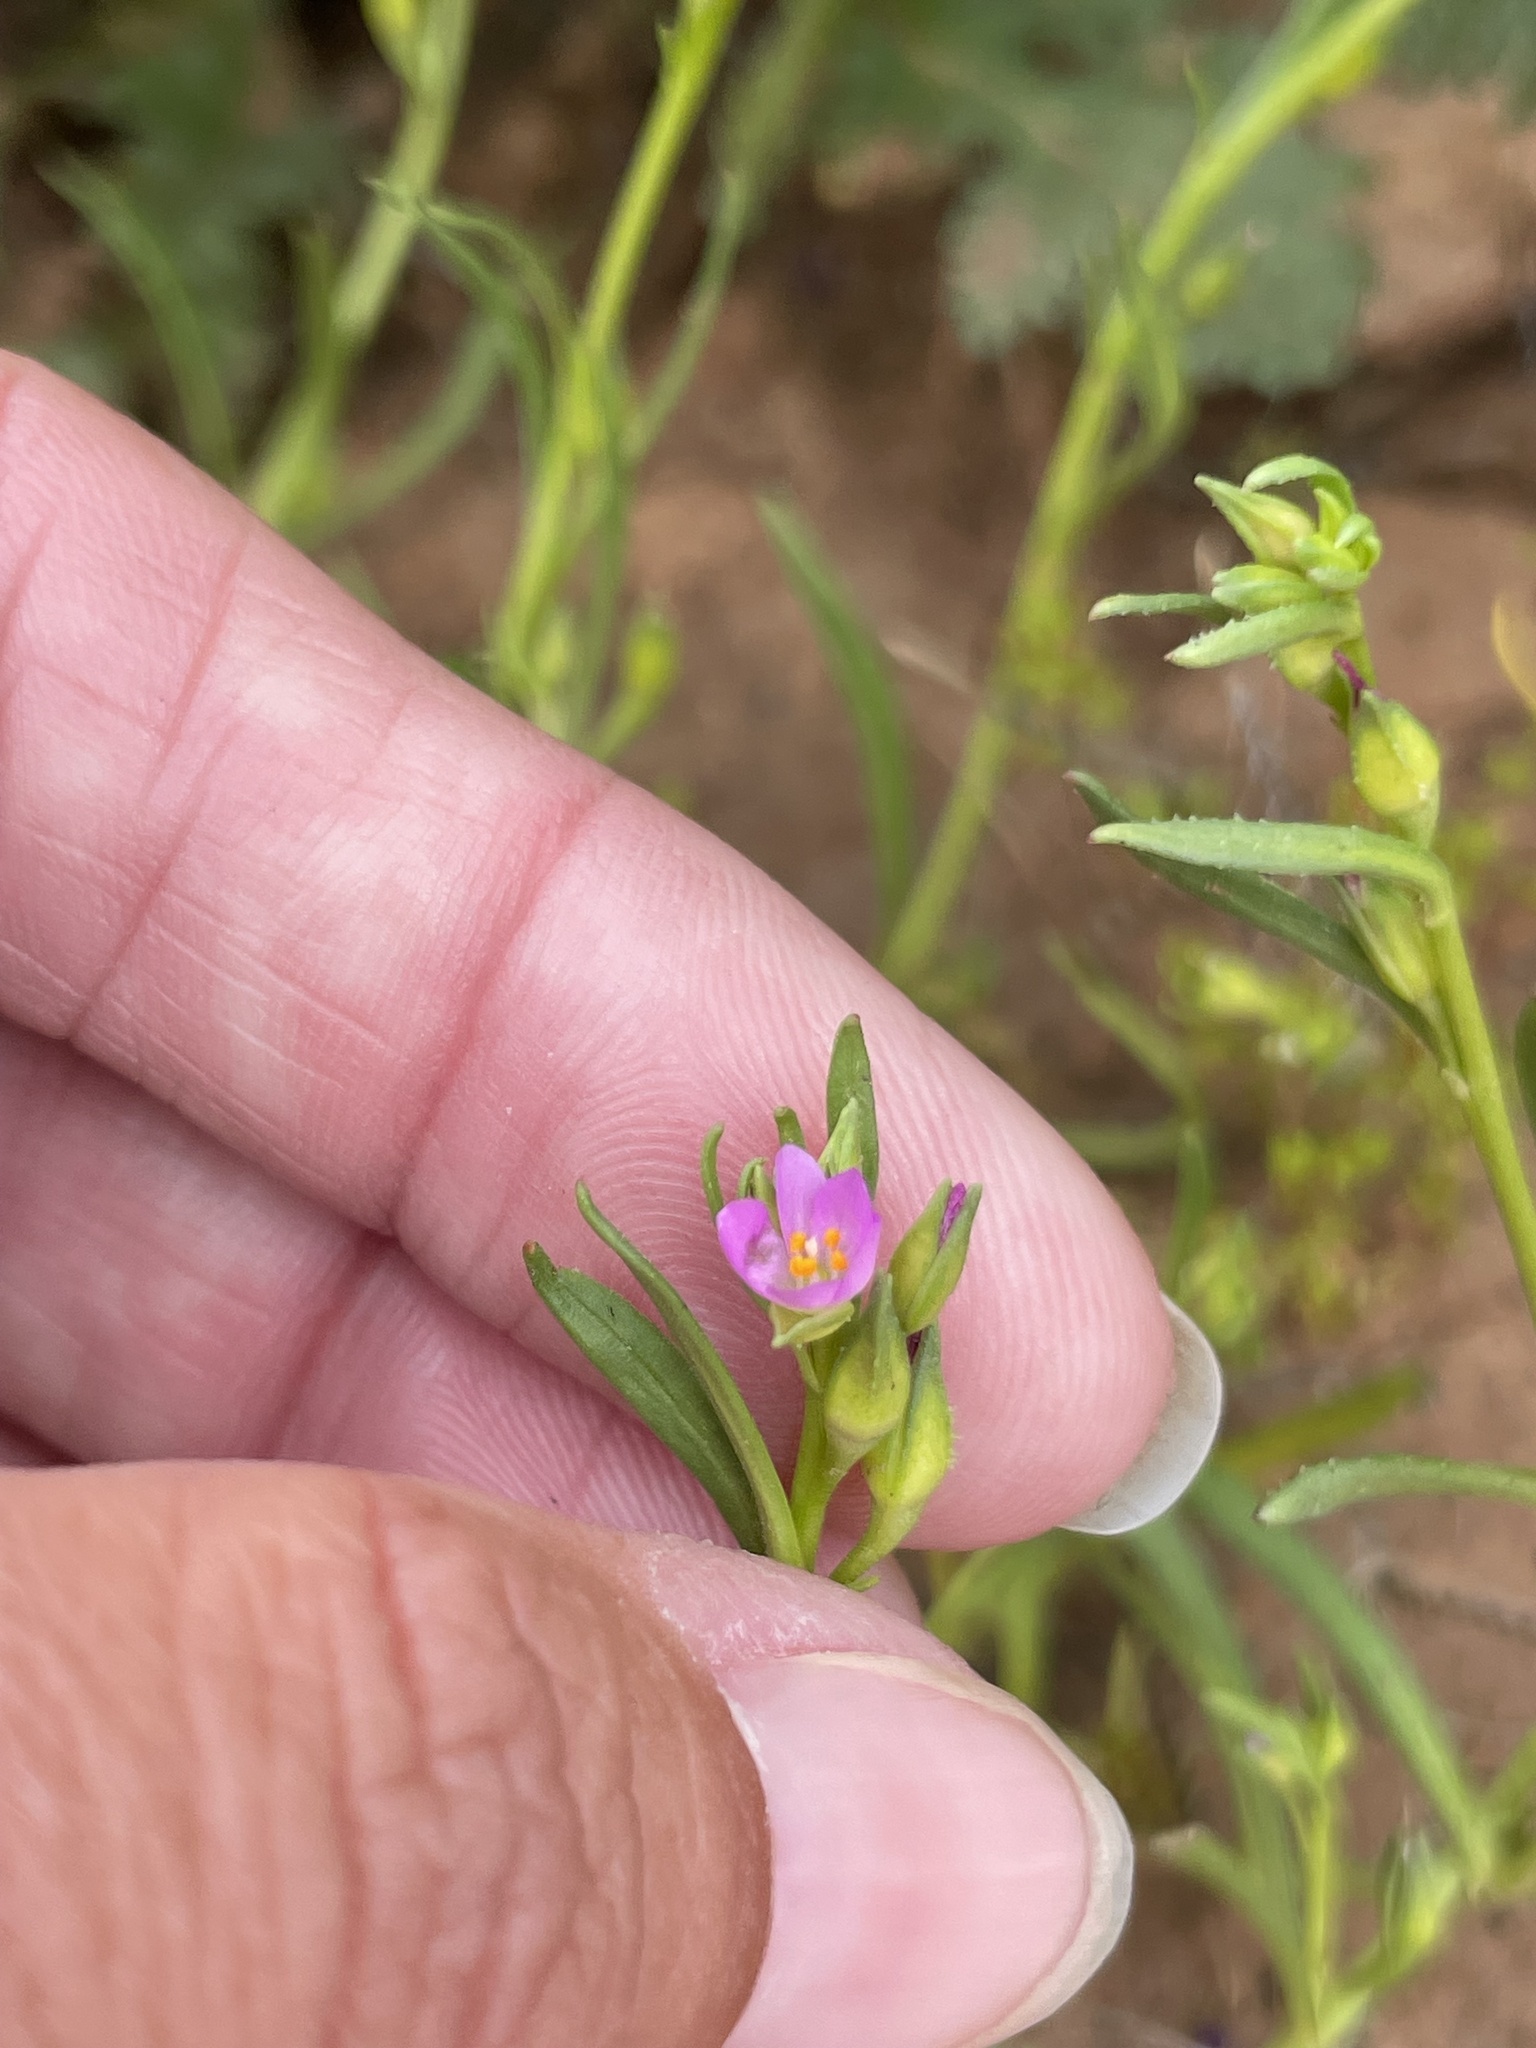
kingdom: Plantae
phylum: Tracheophyta
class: Magnoliopsida
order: Caryophyllales
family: Montiaceae
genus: Calandrinia
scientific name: Calandrinia menziesii
